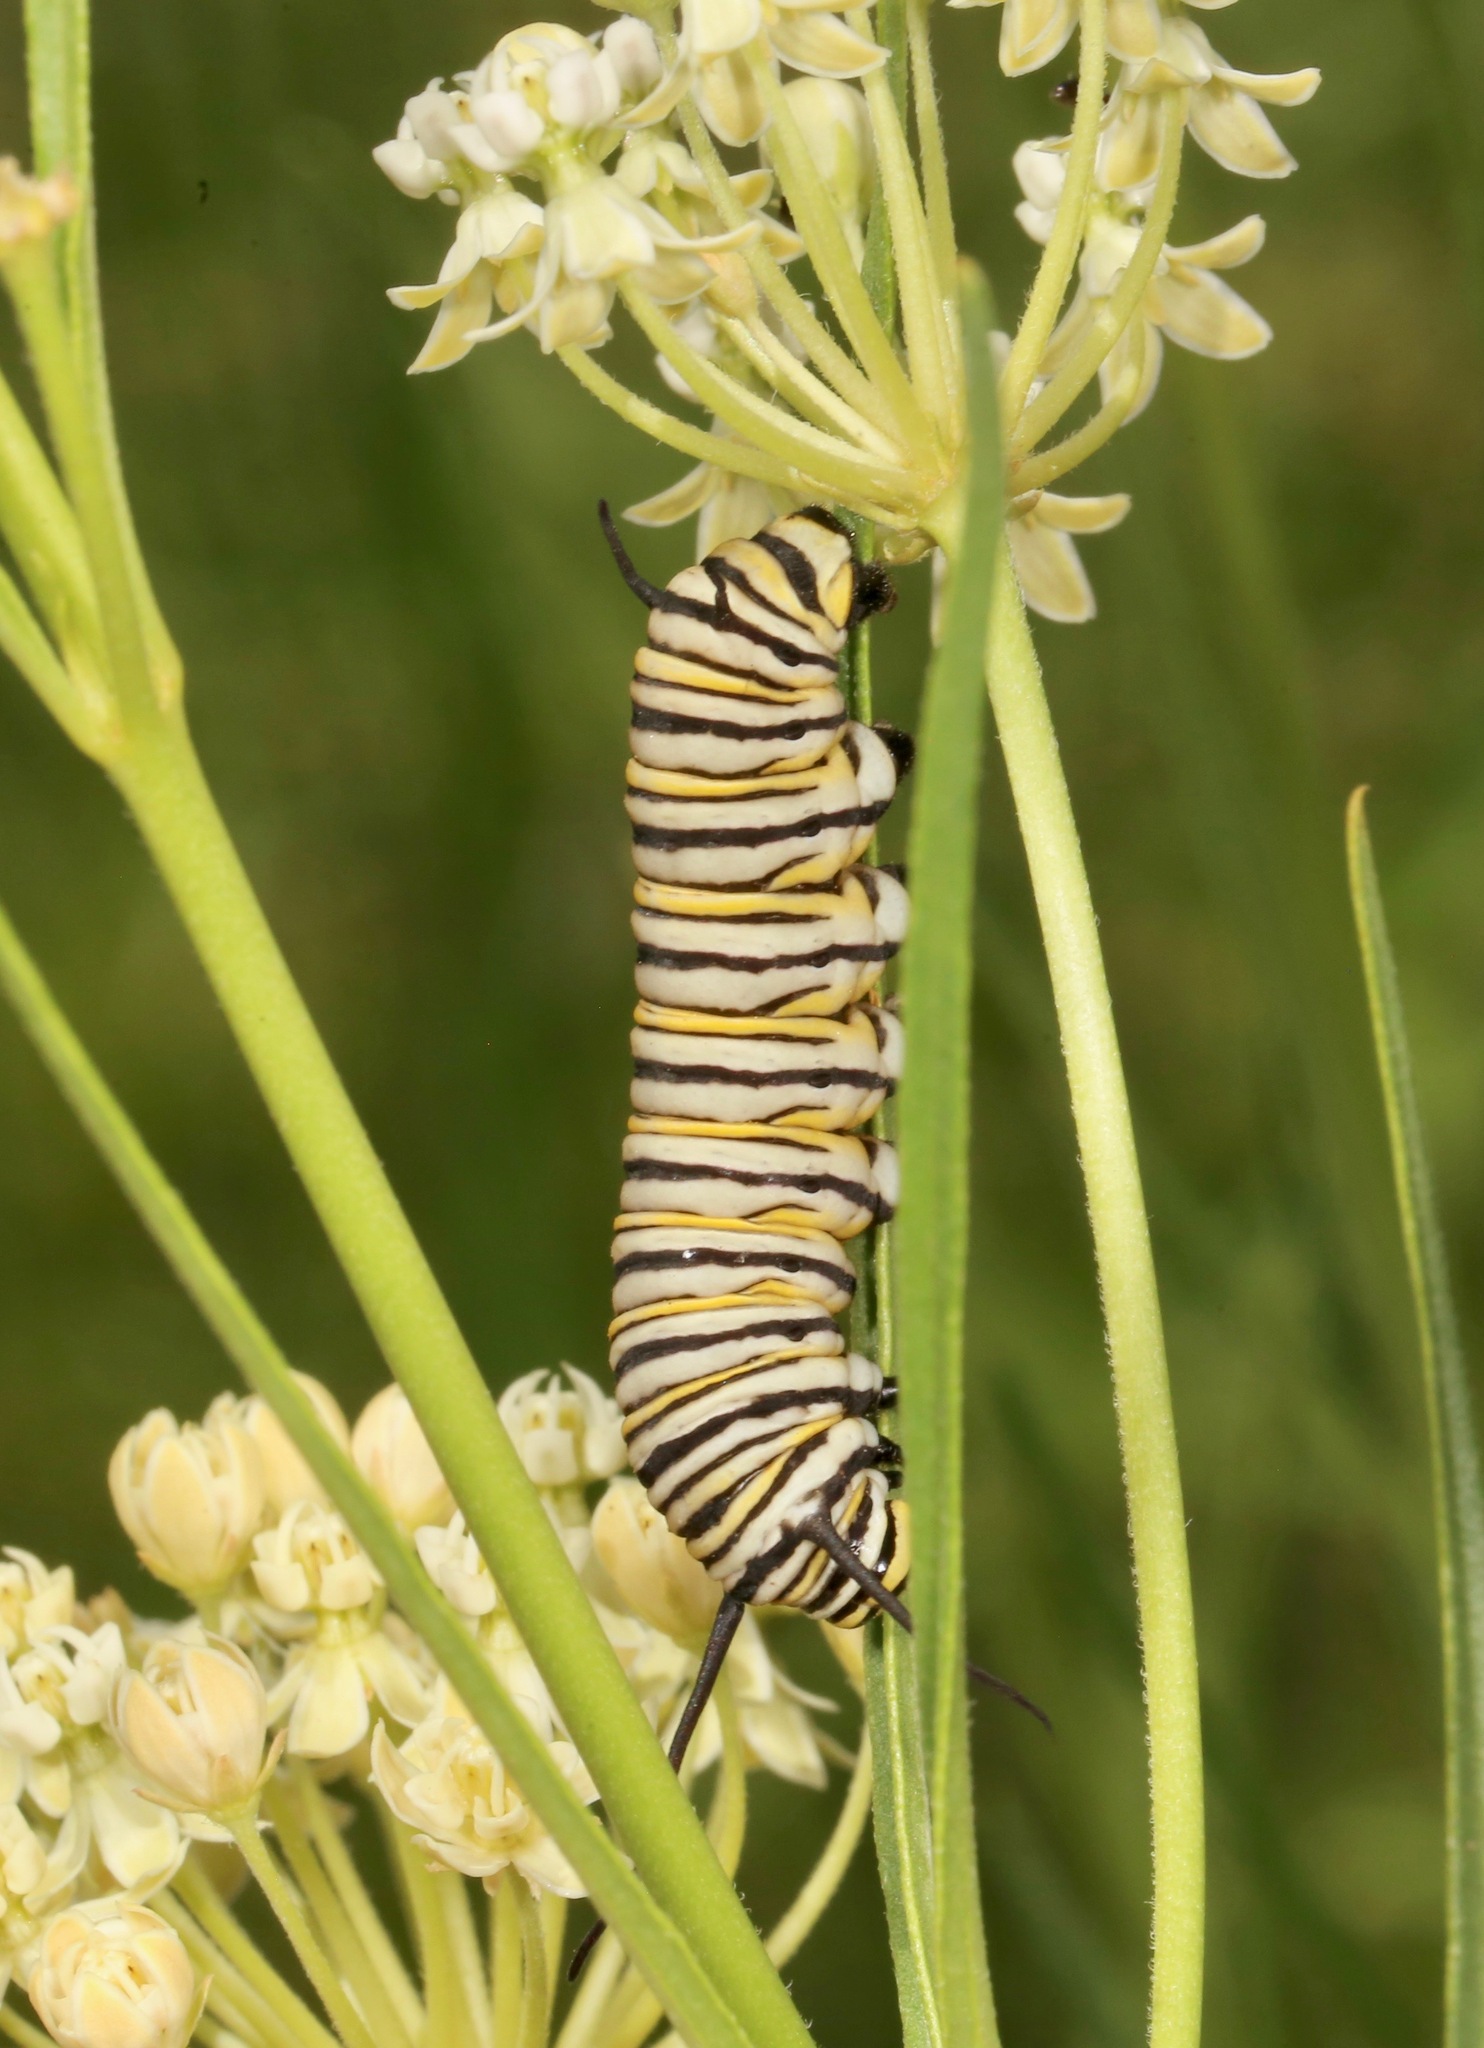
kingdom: Animalia
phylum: Arthropoda
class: Insecta
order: Lepidoptera
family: Nymphalidae
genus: Danaus
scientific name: Danaus plexippus
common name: Monarch
